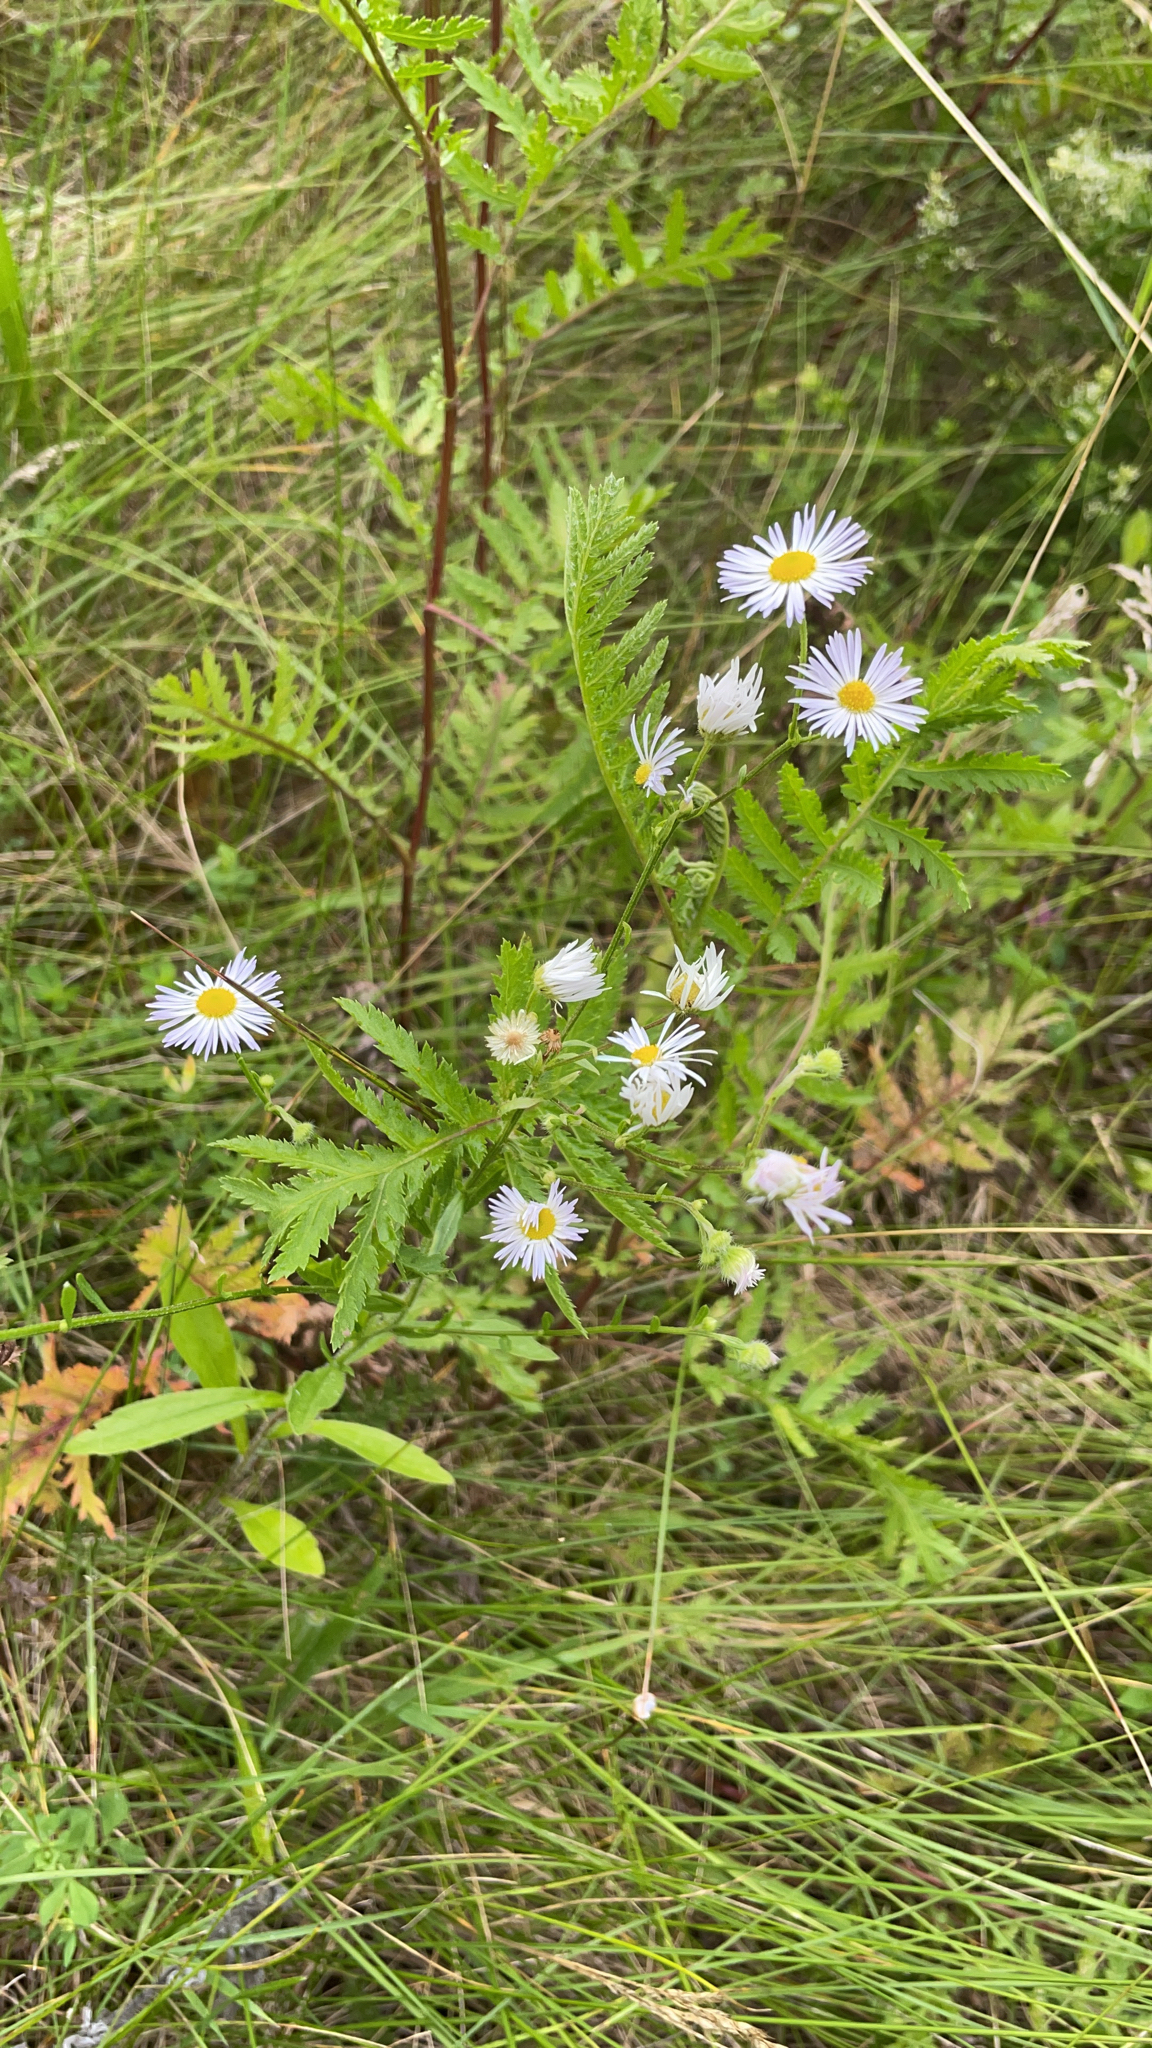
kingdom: Plantae
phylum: Tracheophyta
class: Magnoliopsida
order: Asterales
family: Asteraceae
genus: Erigeron
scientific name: Erigeron annuus
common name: Tall fleabane
